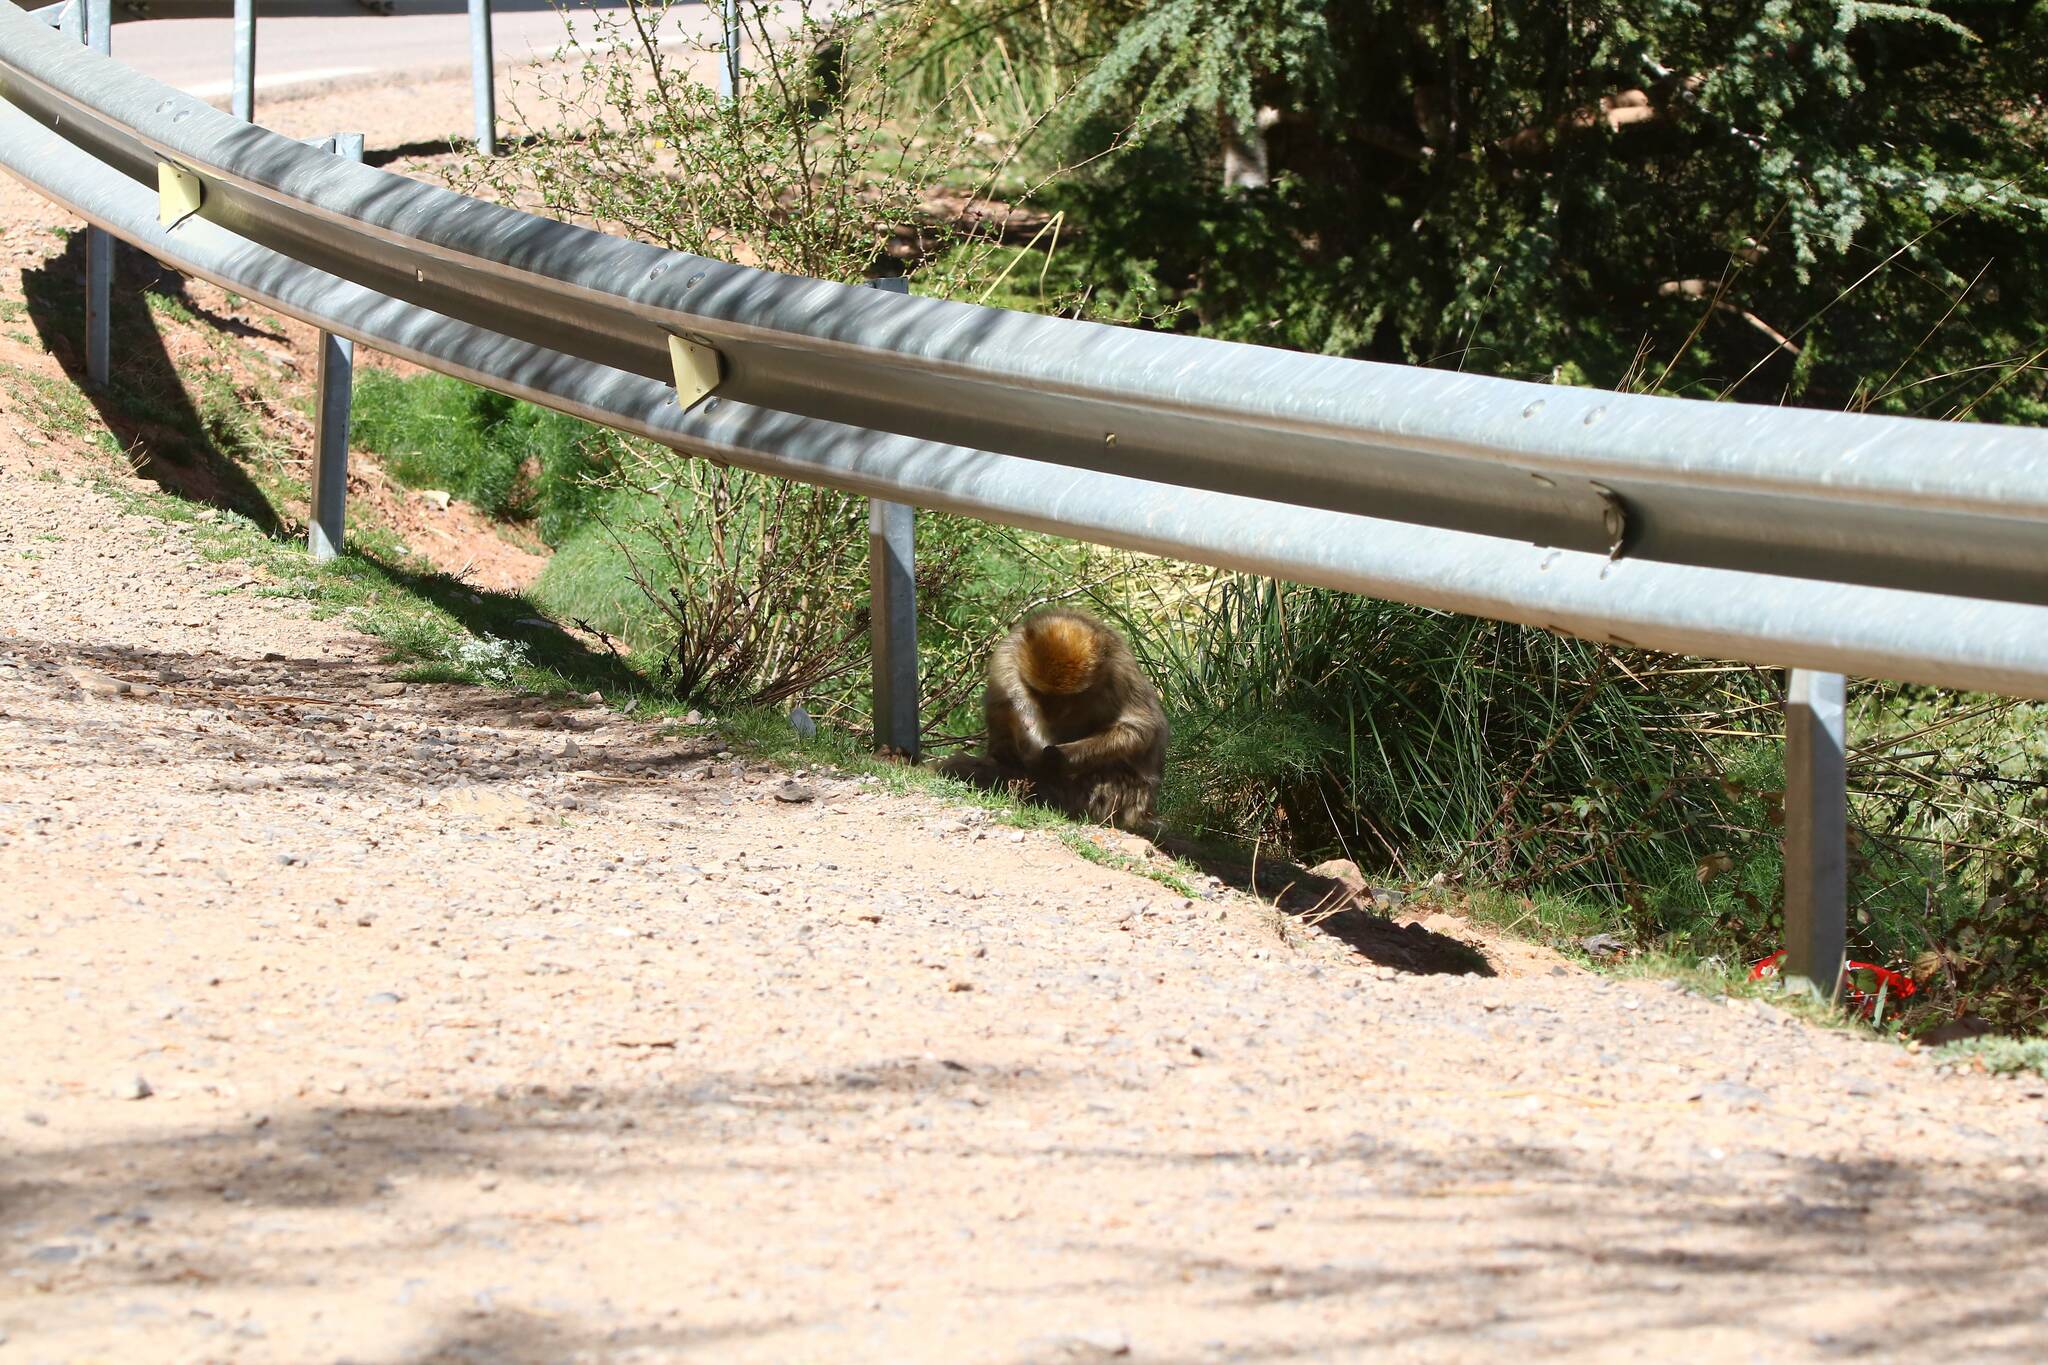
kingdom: Animalia
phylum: Chordata
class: Mammalia
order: Primates
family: Cercopithecidae
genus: Macaca
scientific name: Macaca sylvanus
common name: Barbary macaque
